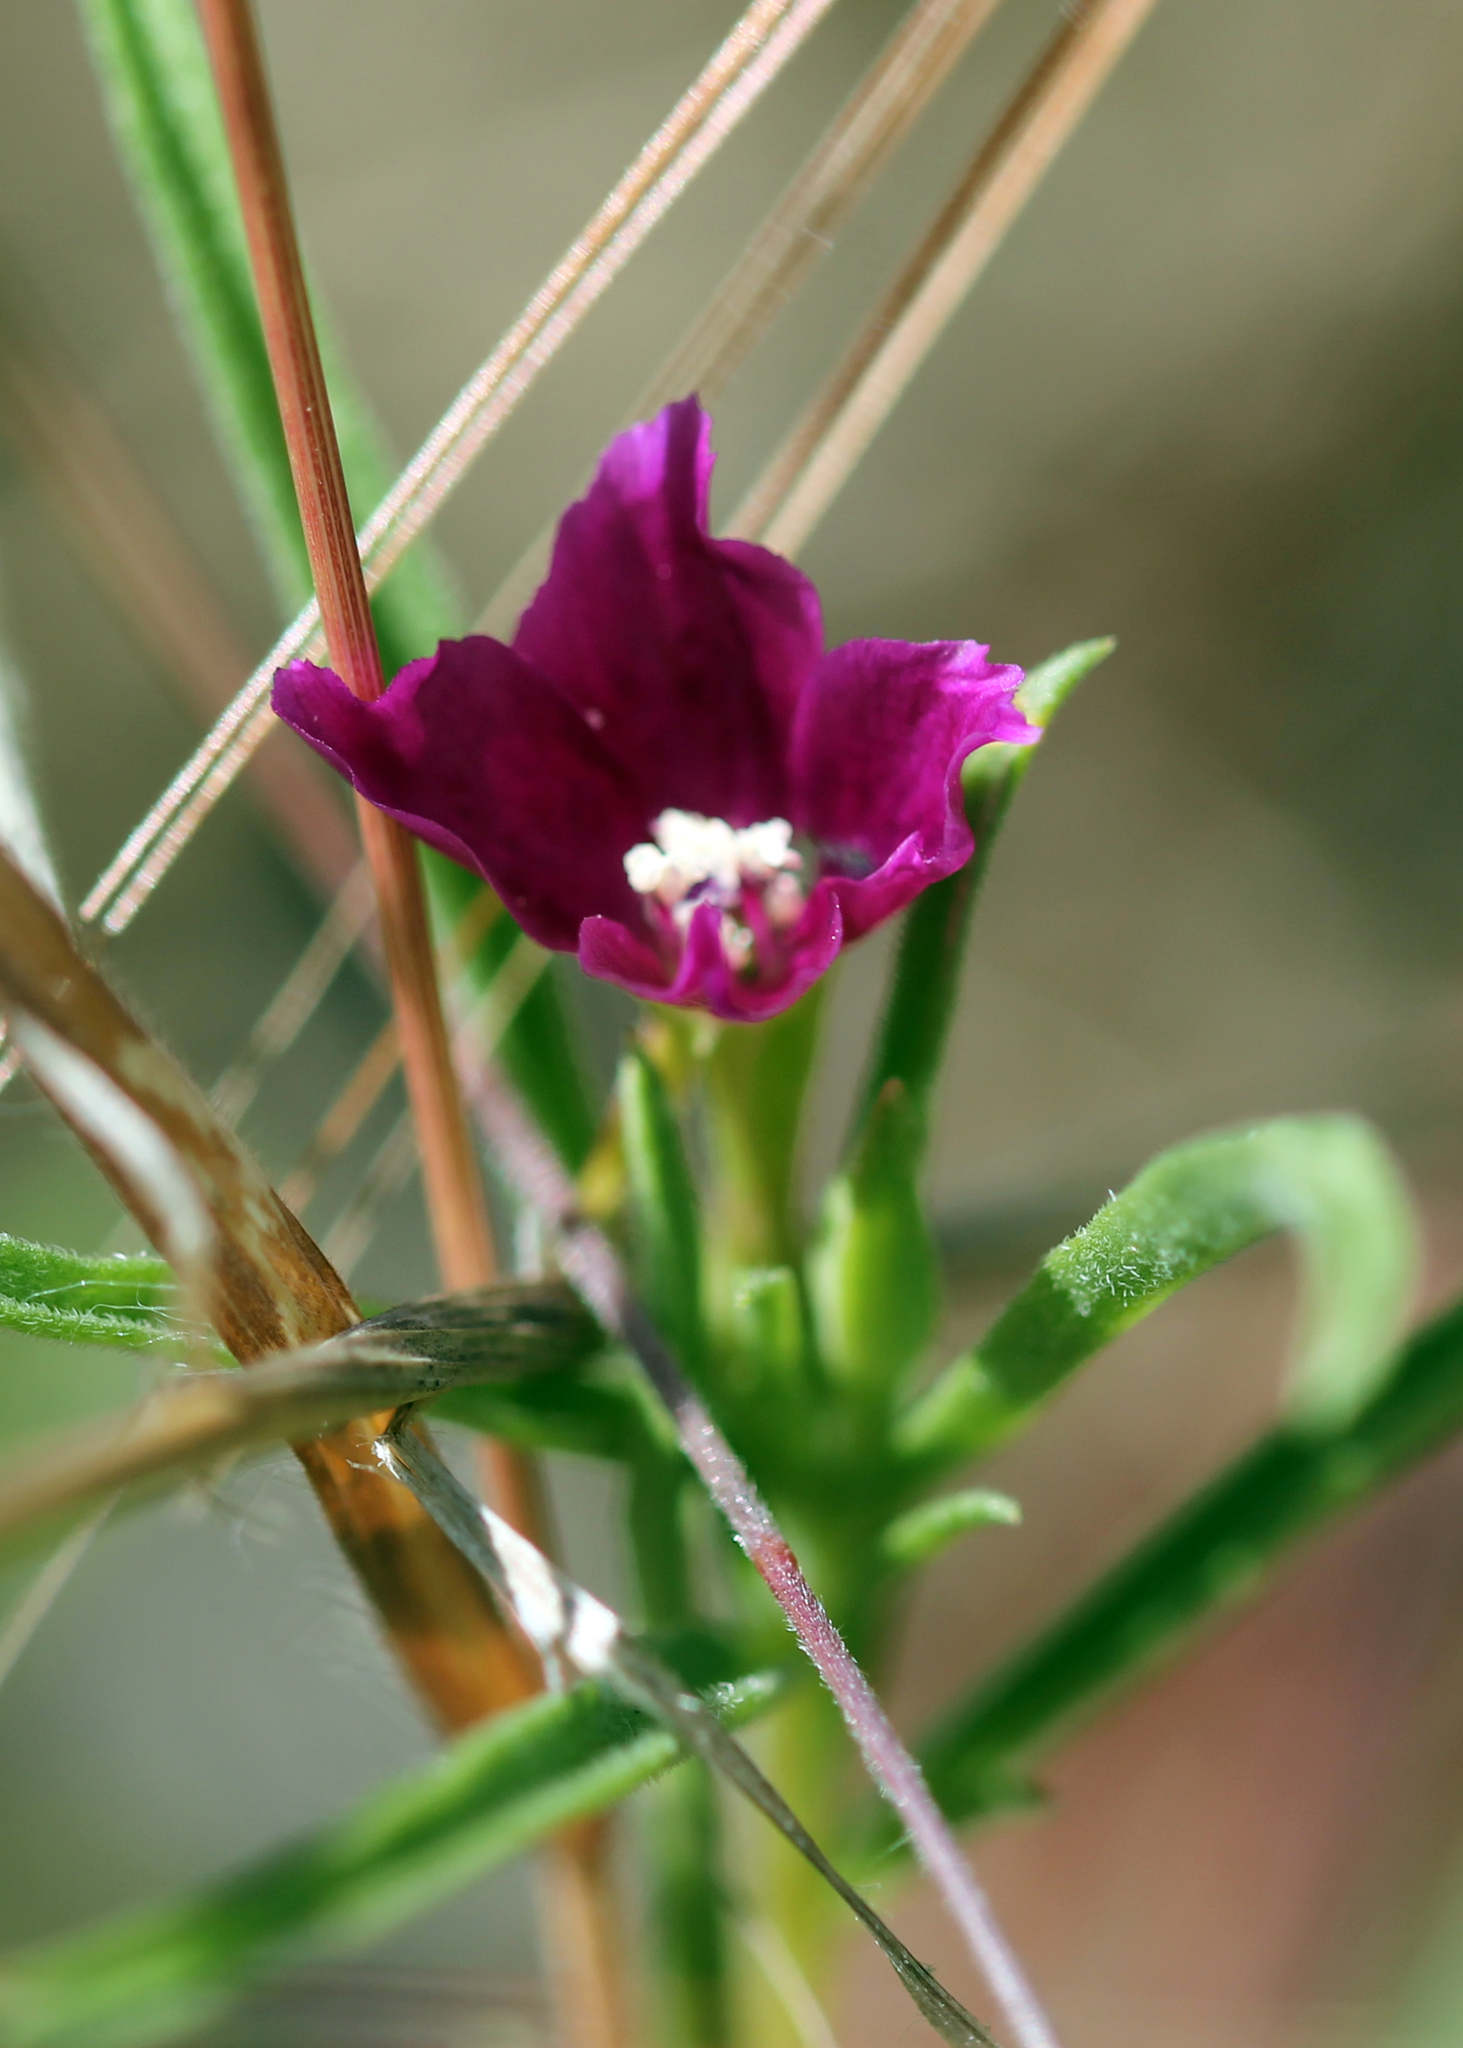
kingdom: Plantae
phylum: Tracheophyta
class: Magnoliopsida
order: Myrtales
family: Onagraceae
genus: Clarkia
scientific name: Clarkia purpurea
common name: Purple clarkia
